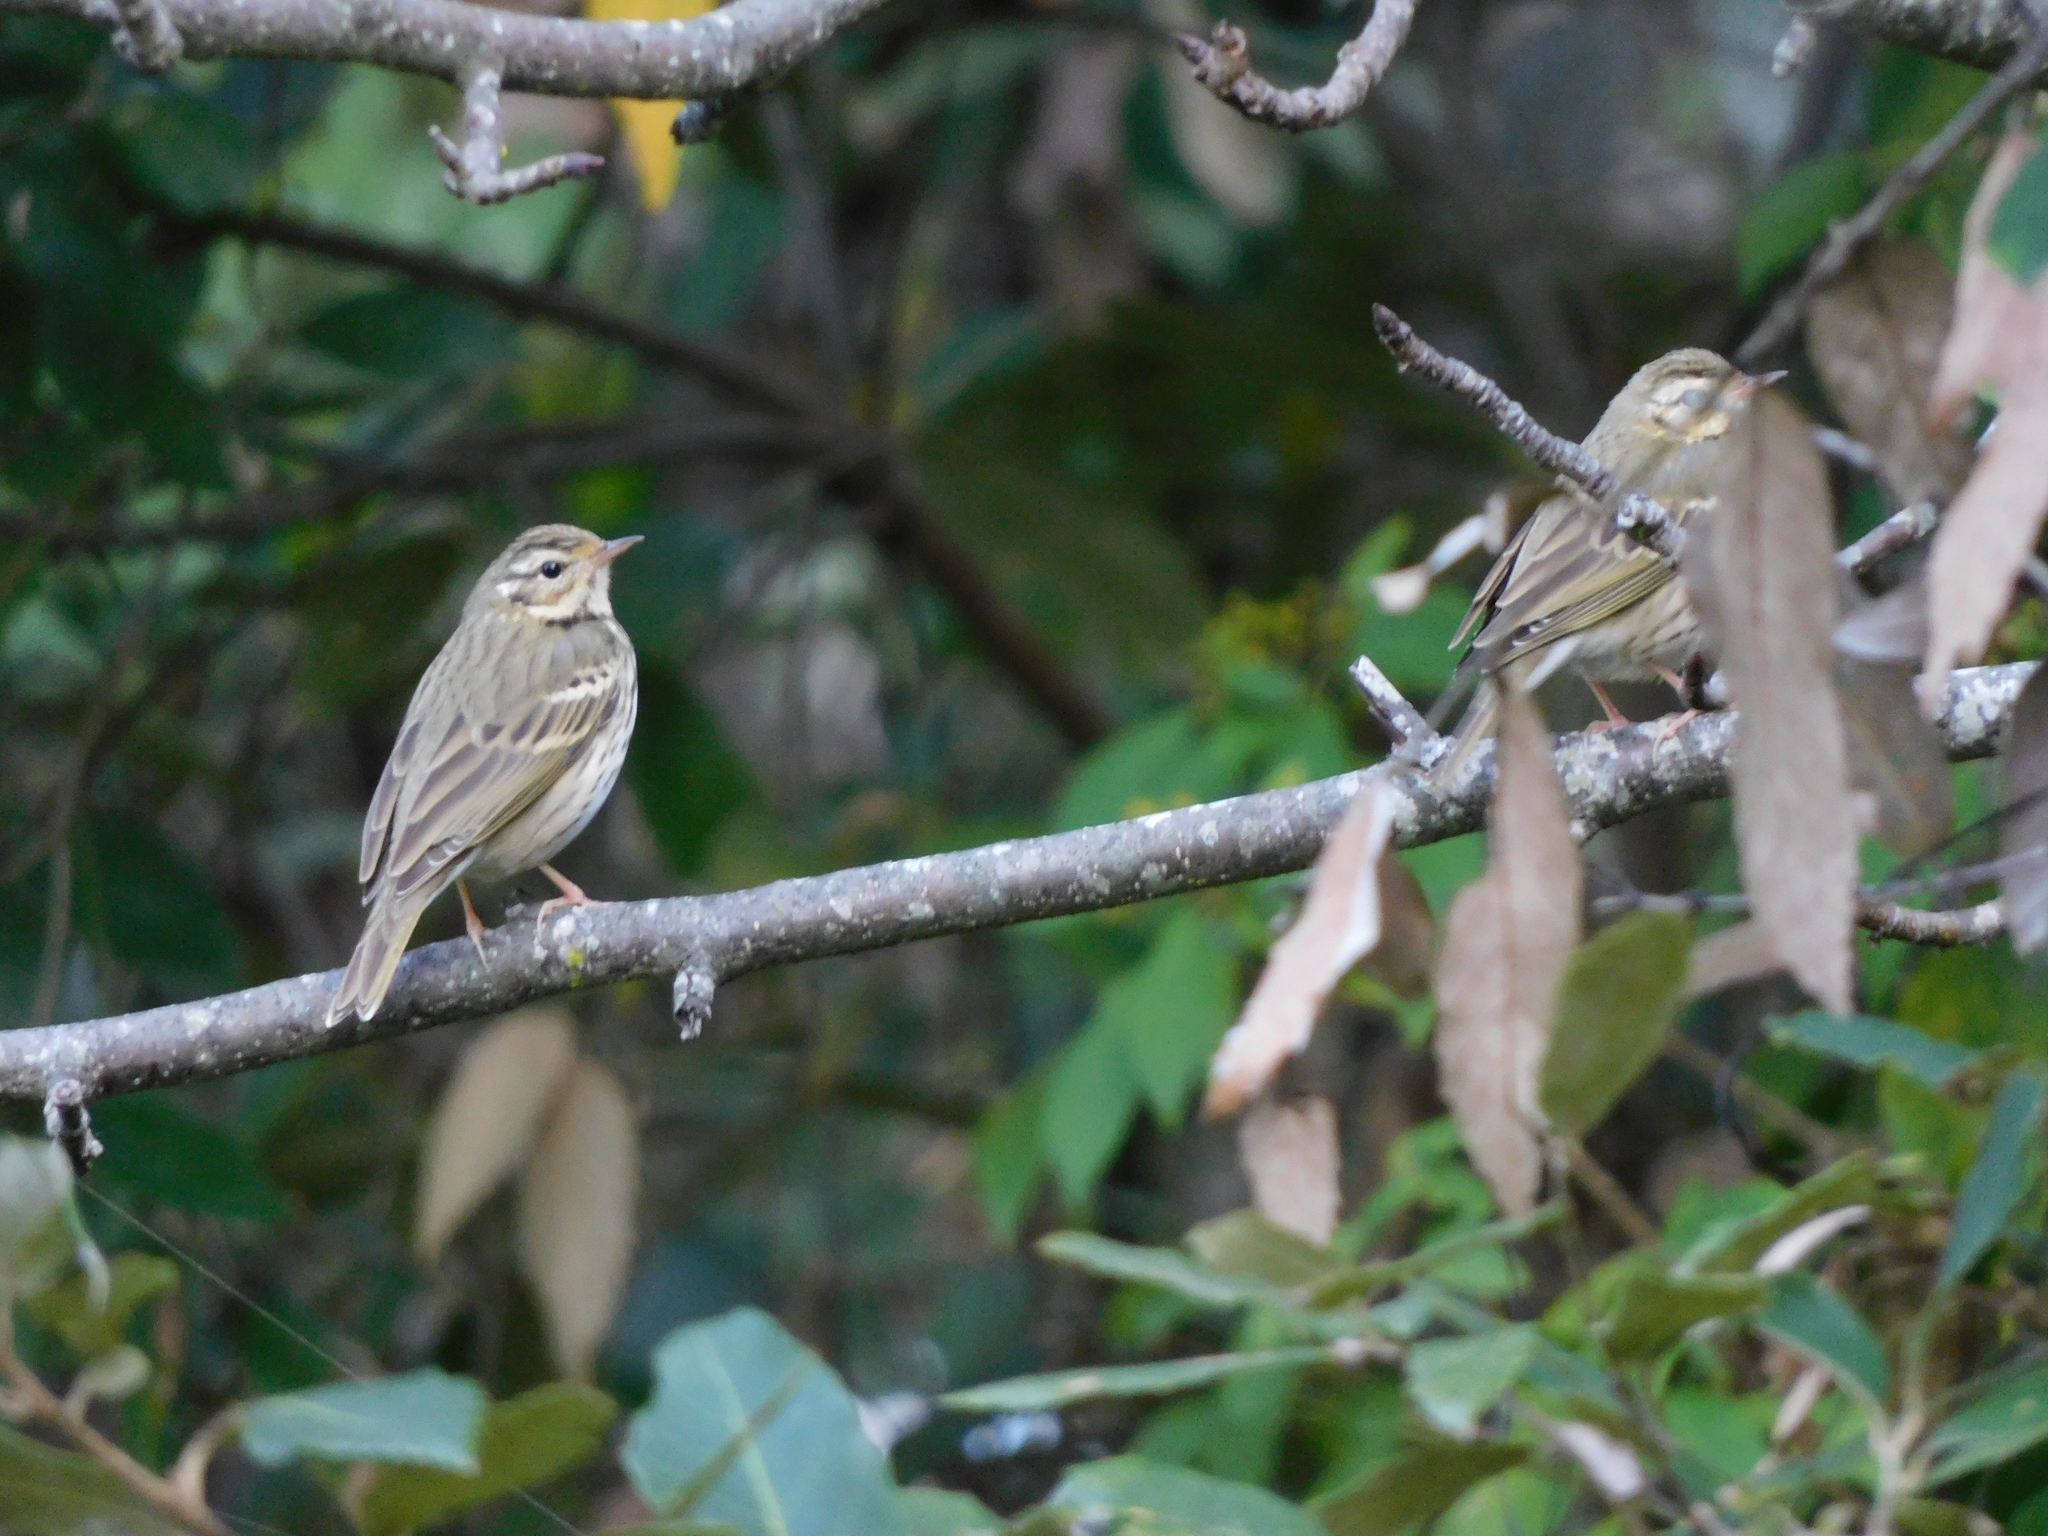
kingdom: Animalia
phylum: Chordata
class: Aves
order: Passeriformes
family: Motacillidae
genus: Anthus
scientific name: Anthus hodgsoni
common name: Olive-backed pipit
